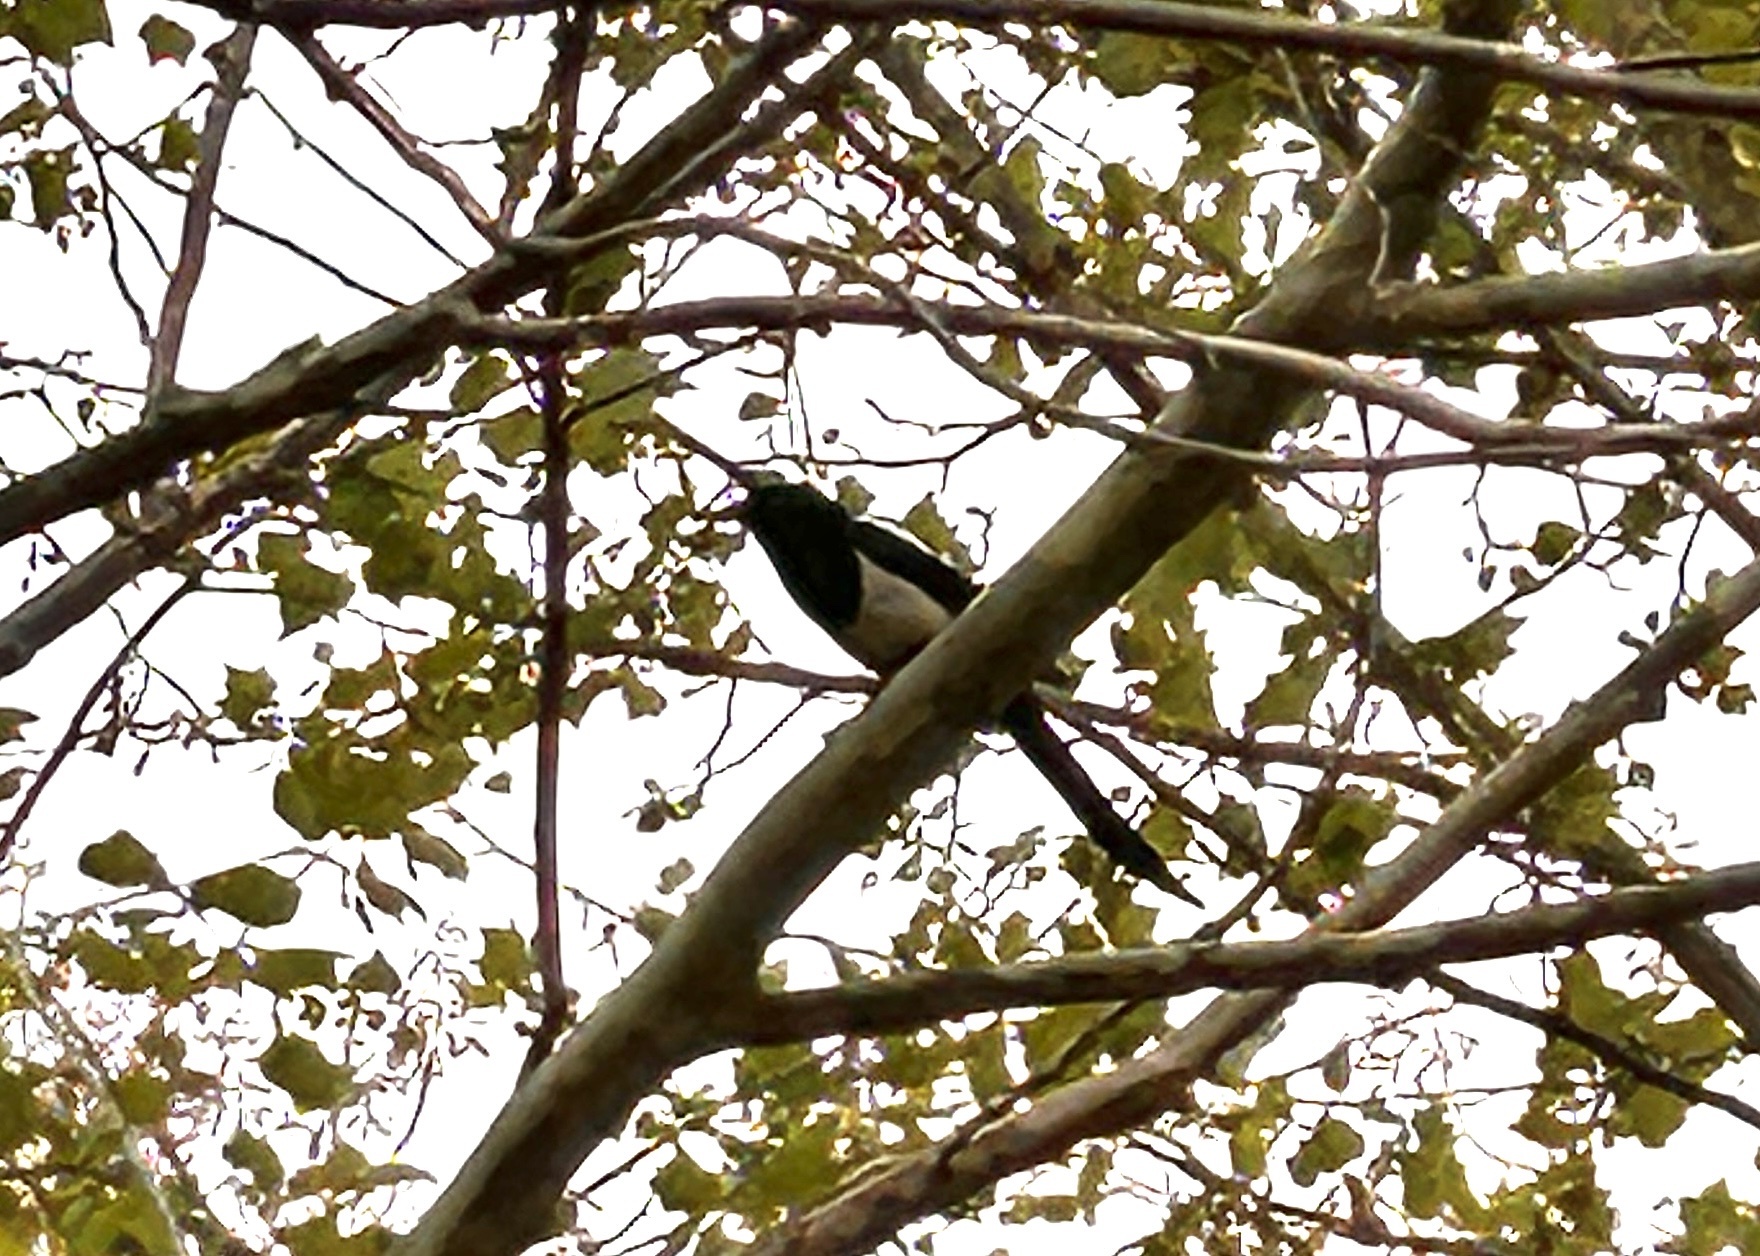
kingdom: Animalia
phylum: Chordata
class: Aves
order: Passeriformes
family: Corvidae
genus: Pica
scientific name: Pica serica
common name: Oriental magpie
